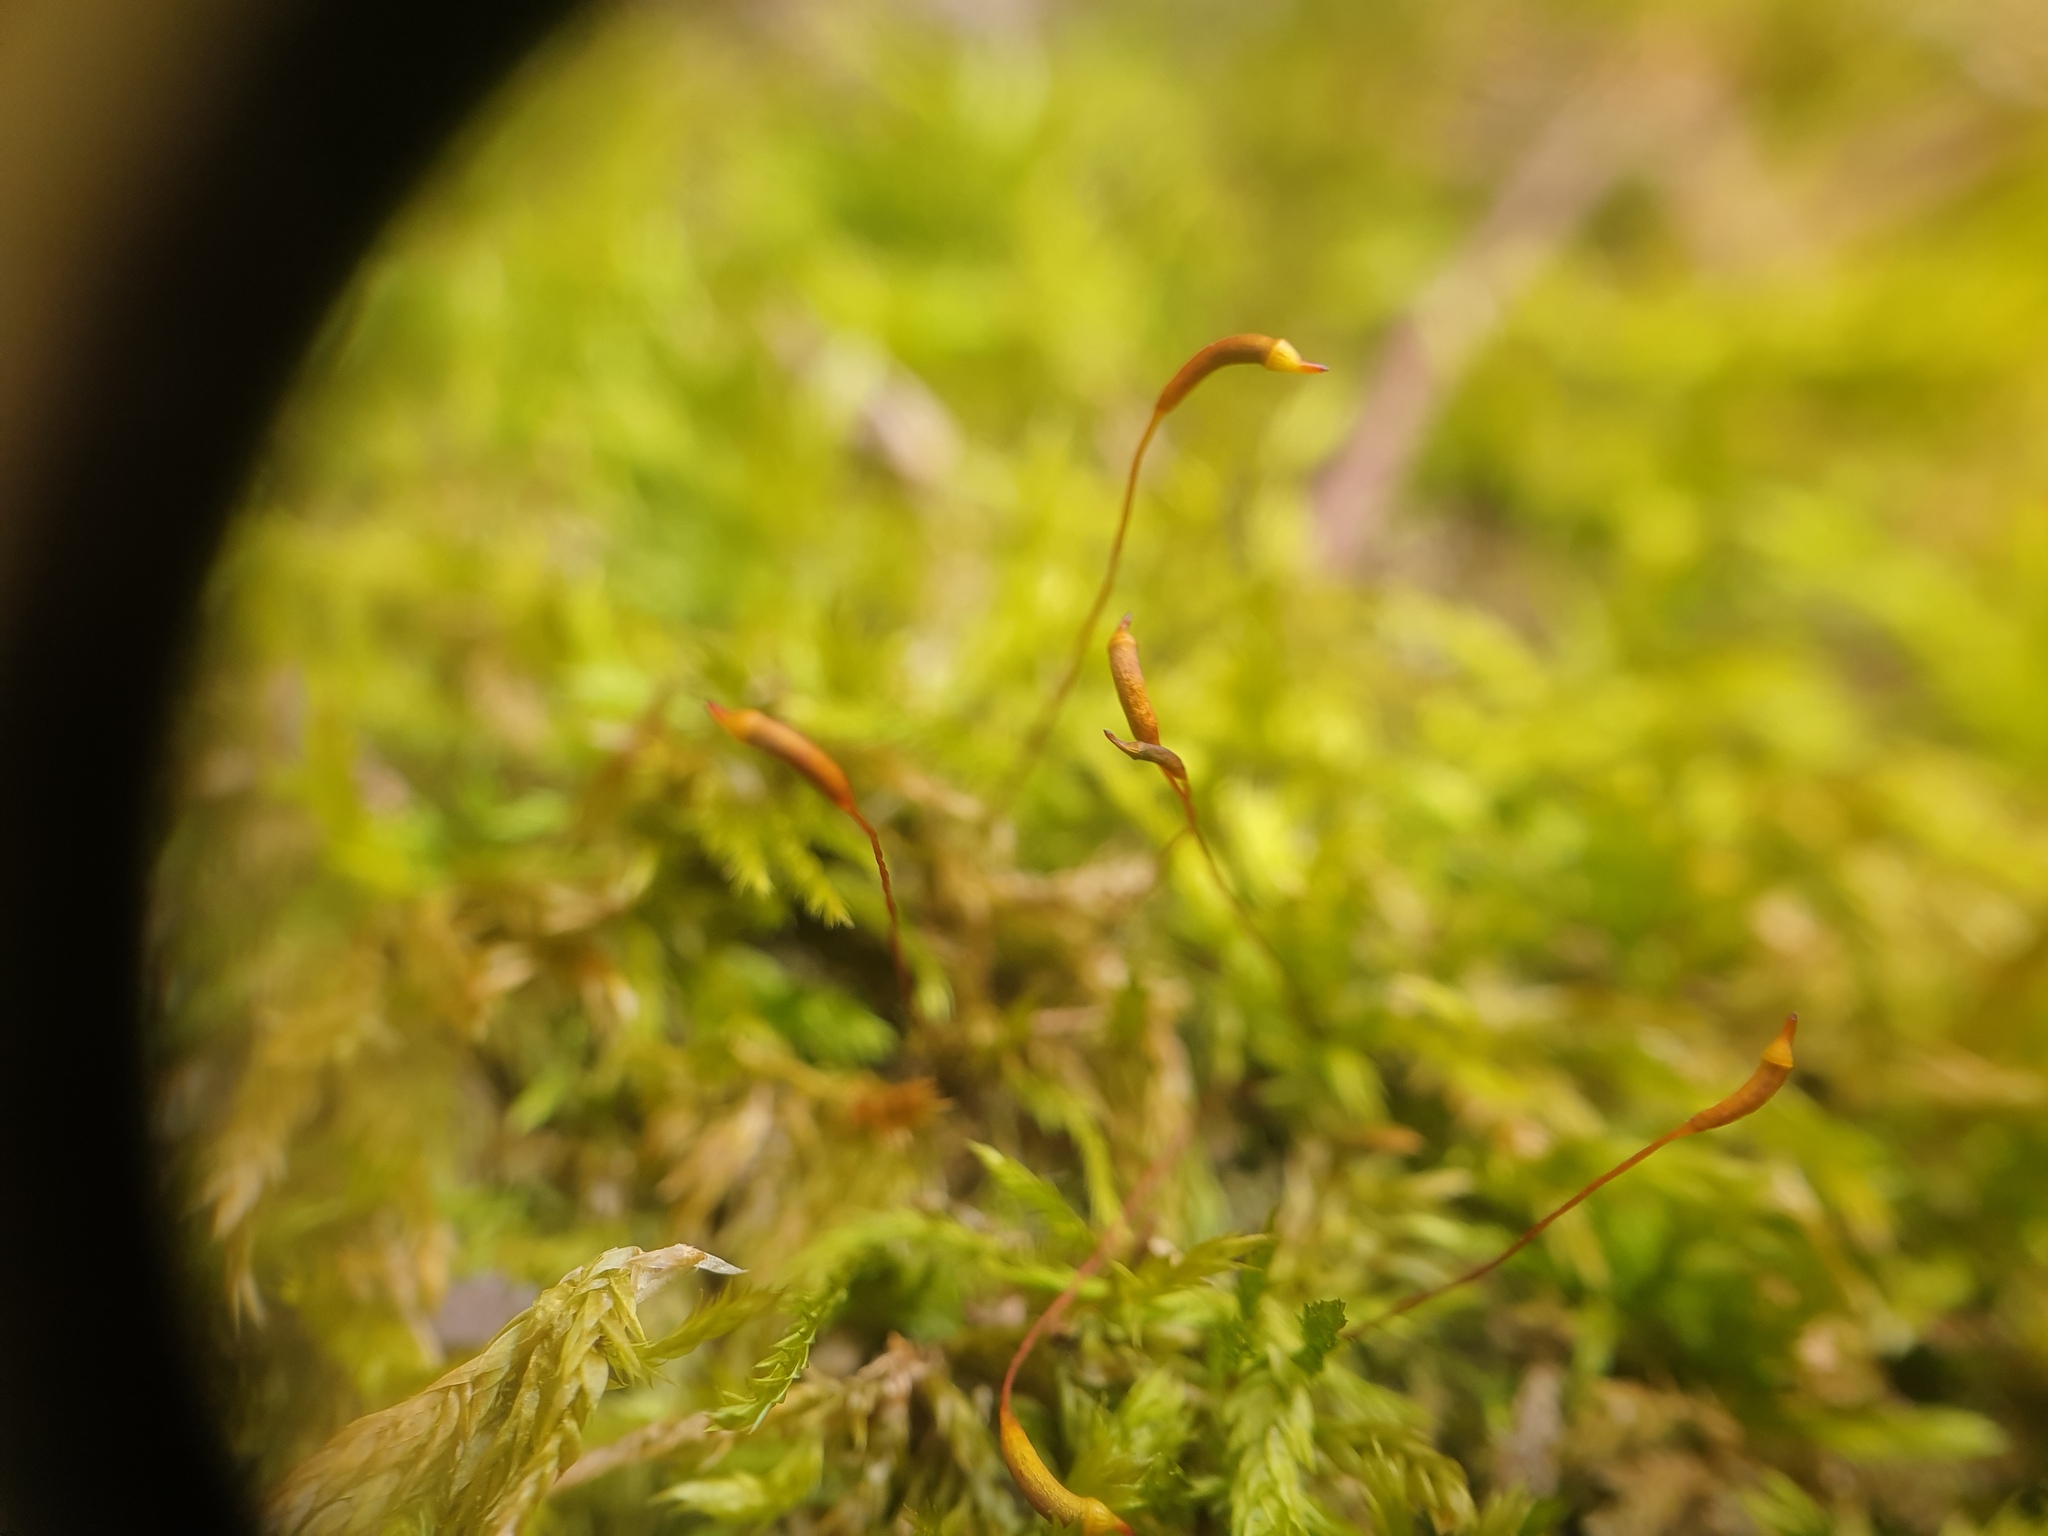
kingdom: Plantae
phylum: Bryophyta
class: Bryopsida
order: Hypnales
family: Callicladiaceae
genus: Callicladium
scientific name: Callicladium haldanianum
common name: Beautiful branch moss
